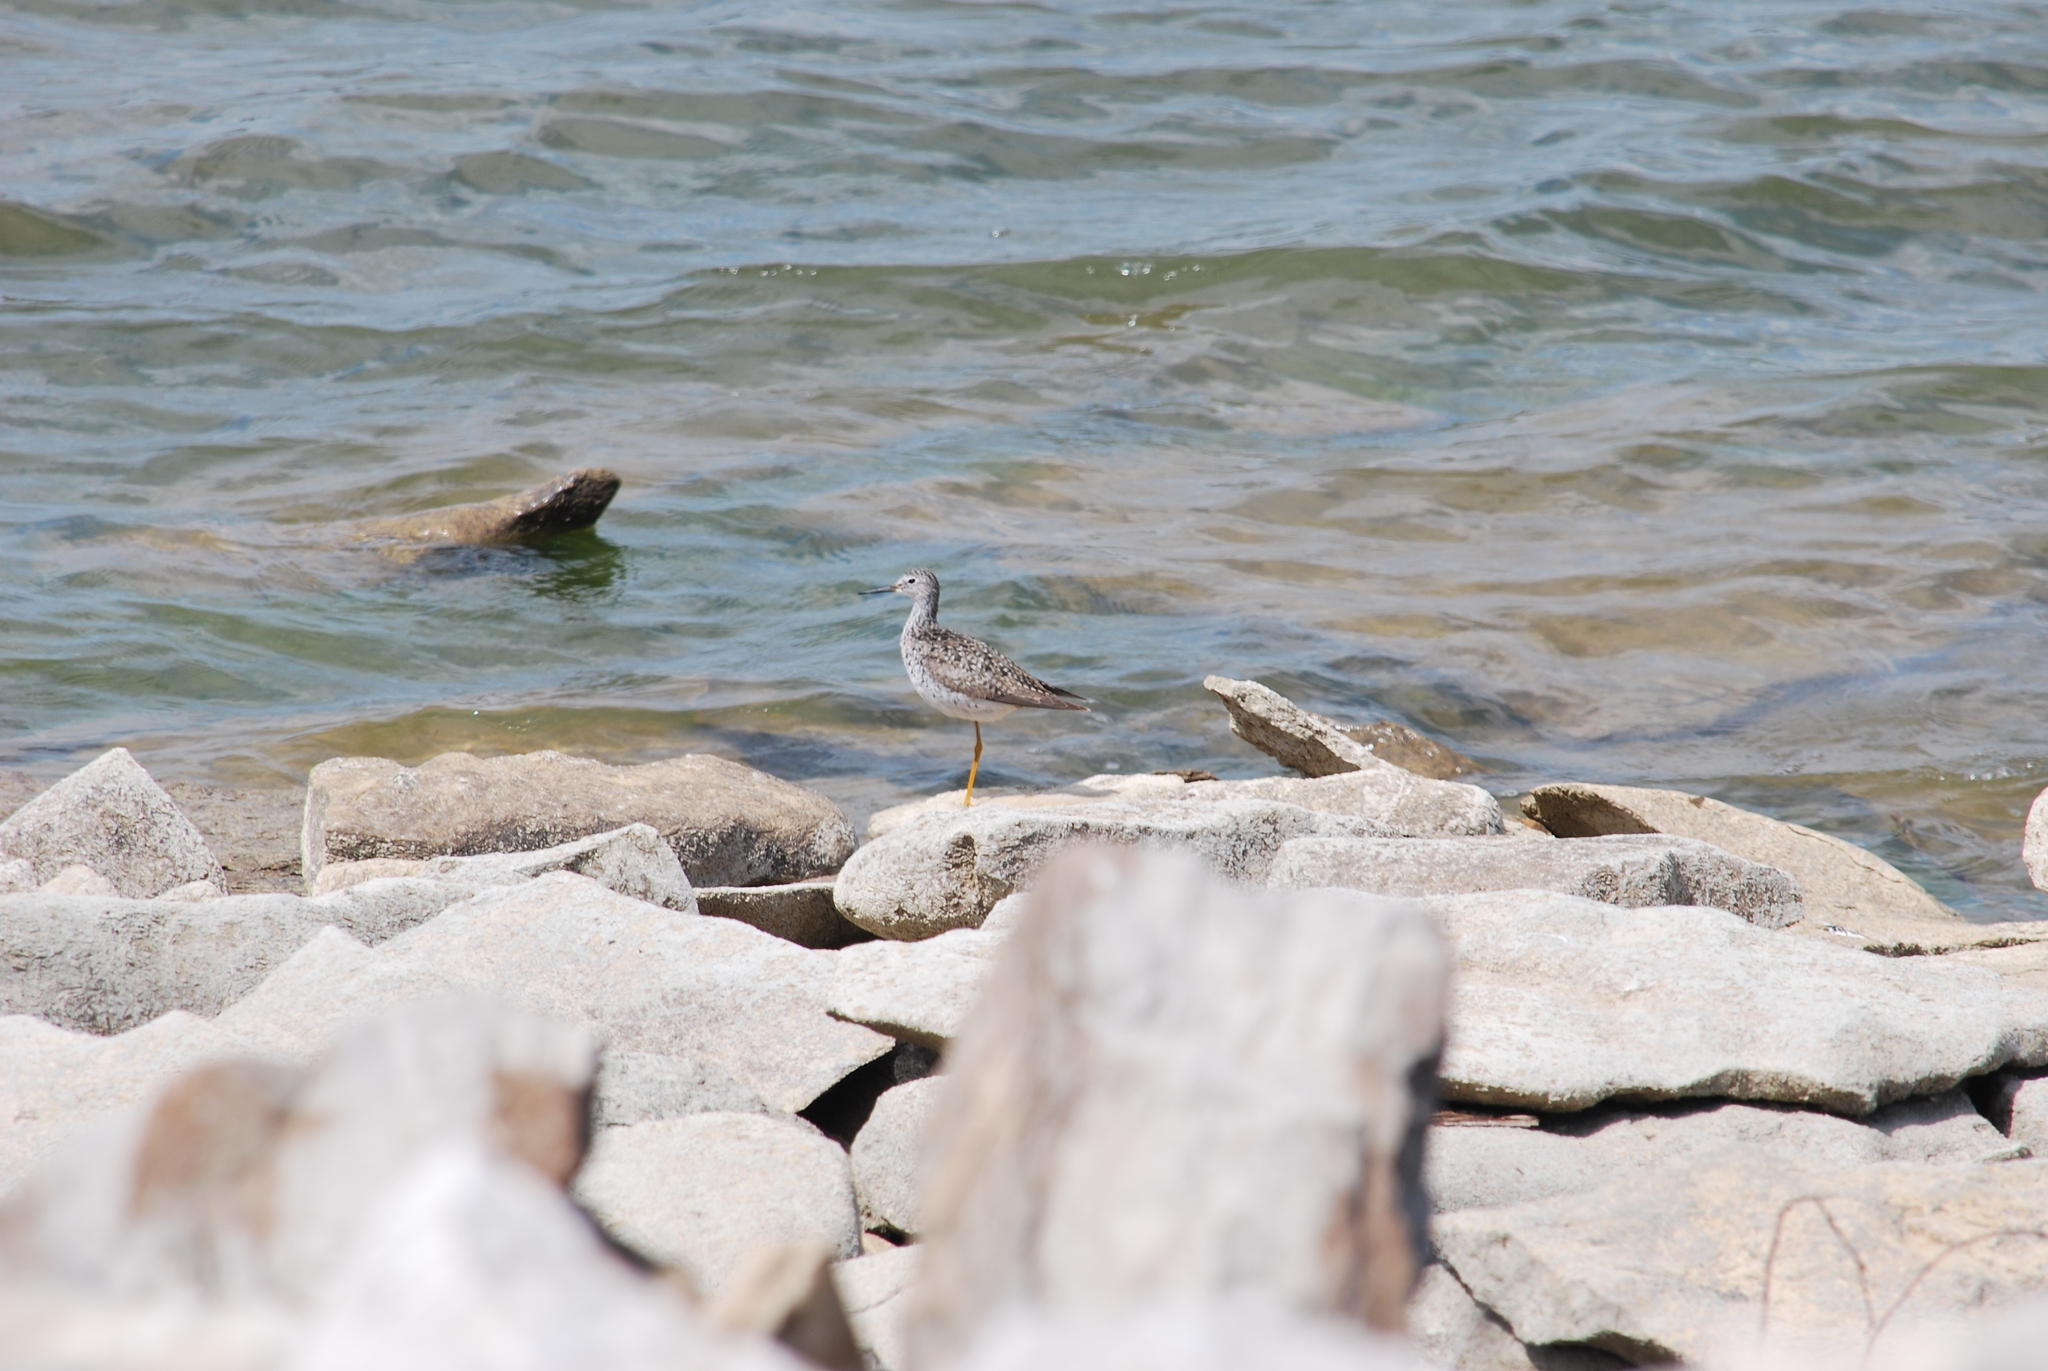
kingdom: Animalia
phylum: Chordata
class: Aves
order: Charadriiformes
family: Scolopacidae
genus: Tringa
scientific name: Tringa flavipes
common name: Lesser yellowlegs
